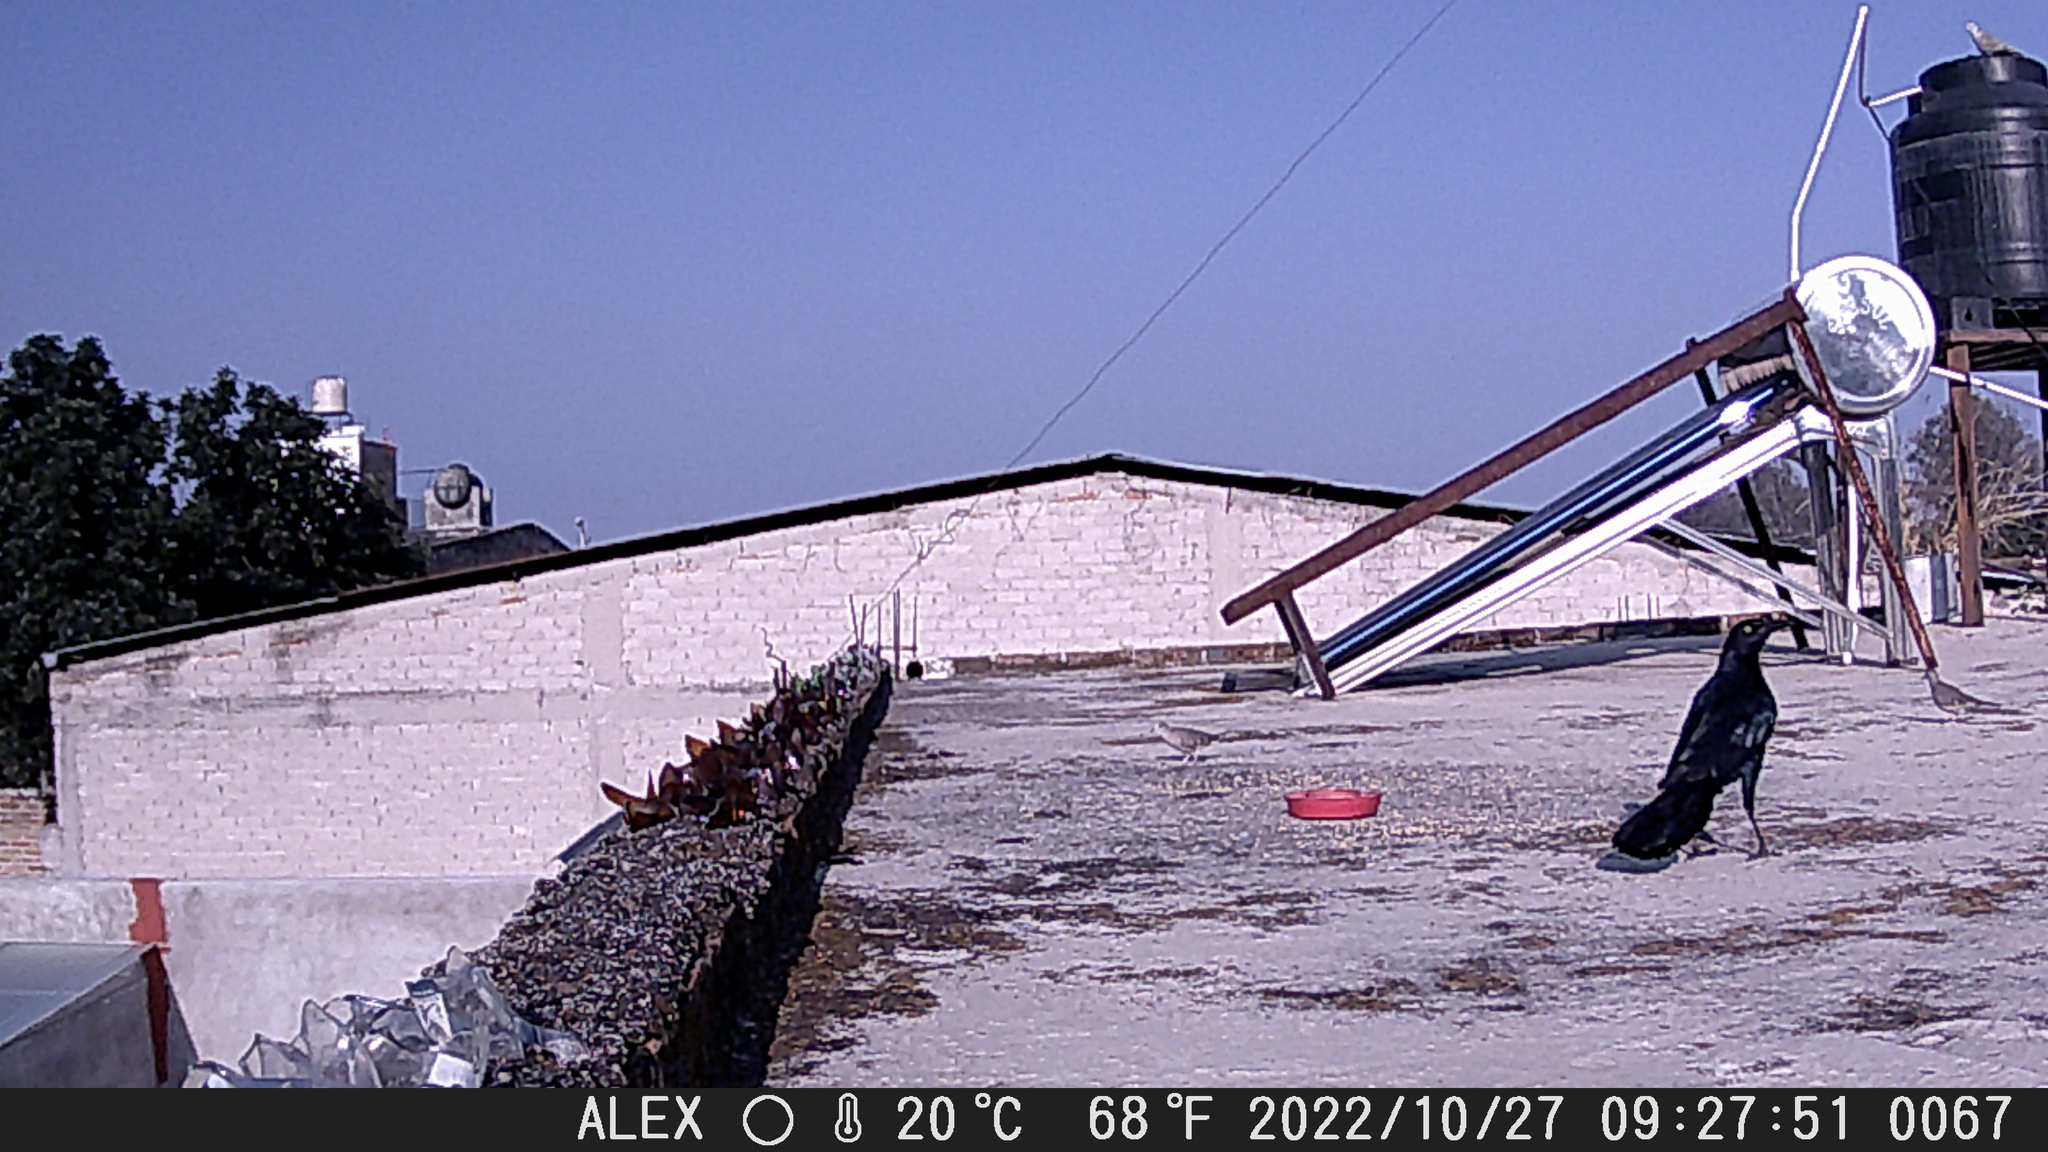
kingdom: Animalia
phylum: Chordata
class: Aves
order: Columbiformes
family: Columbidae
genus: Columbina
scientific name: Columbina inca
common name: Inca dove
